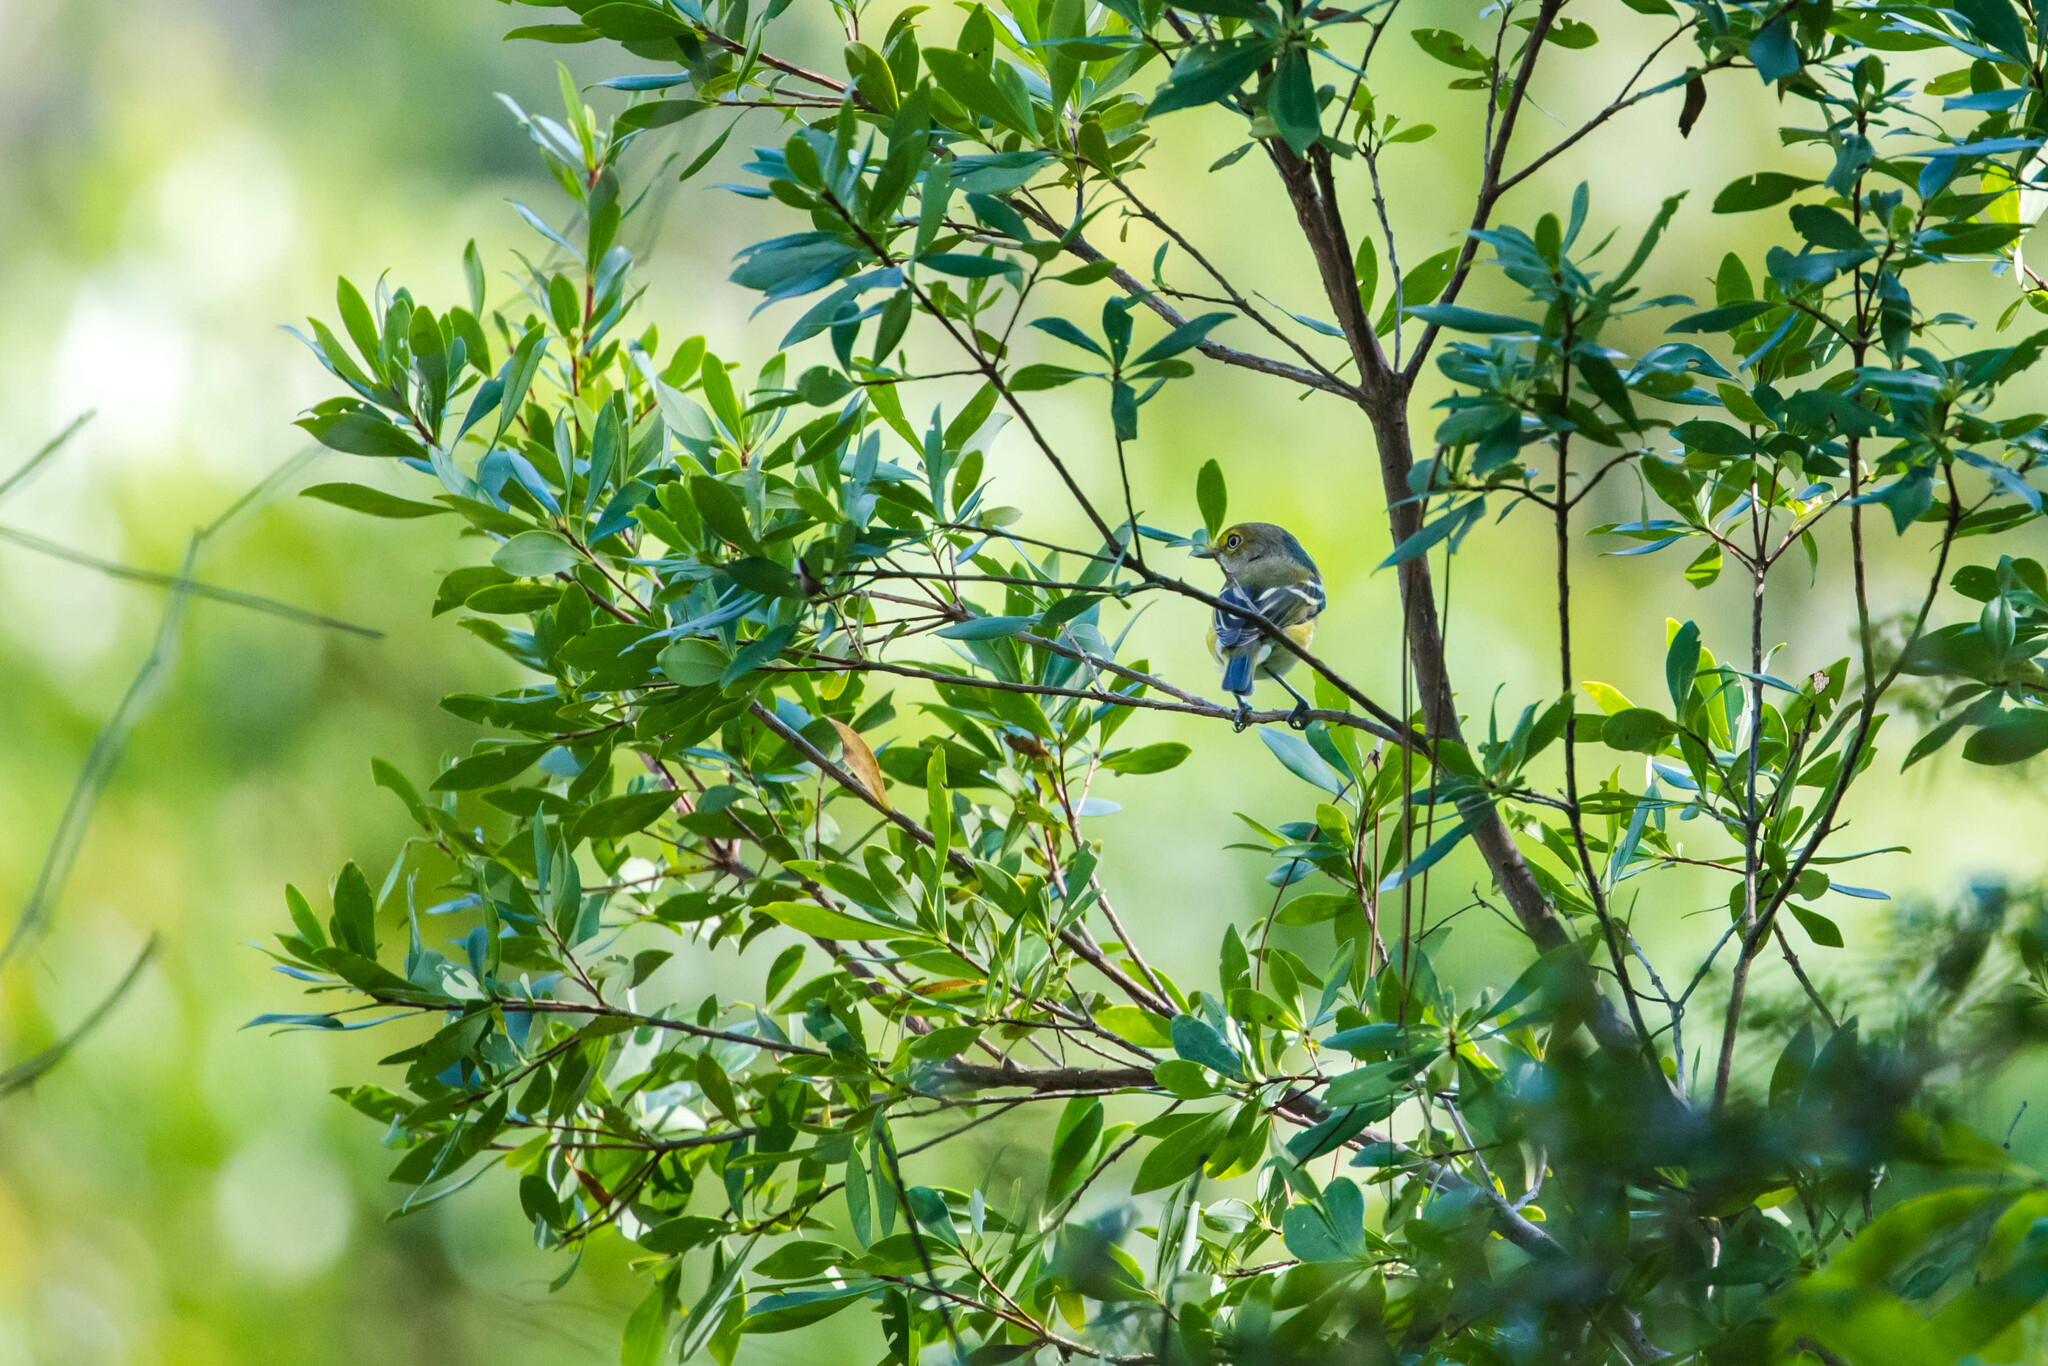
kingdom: Animalia
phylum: Chordata
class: Aves
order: Passeriformes
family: Vireonidae
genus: Vireo
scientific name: Vireo griseus
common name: White-eyed vireo
